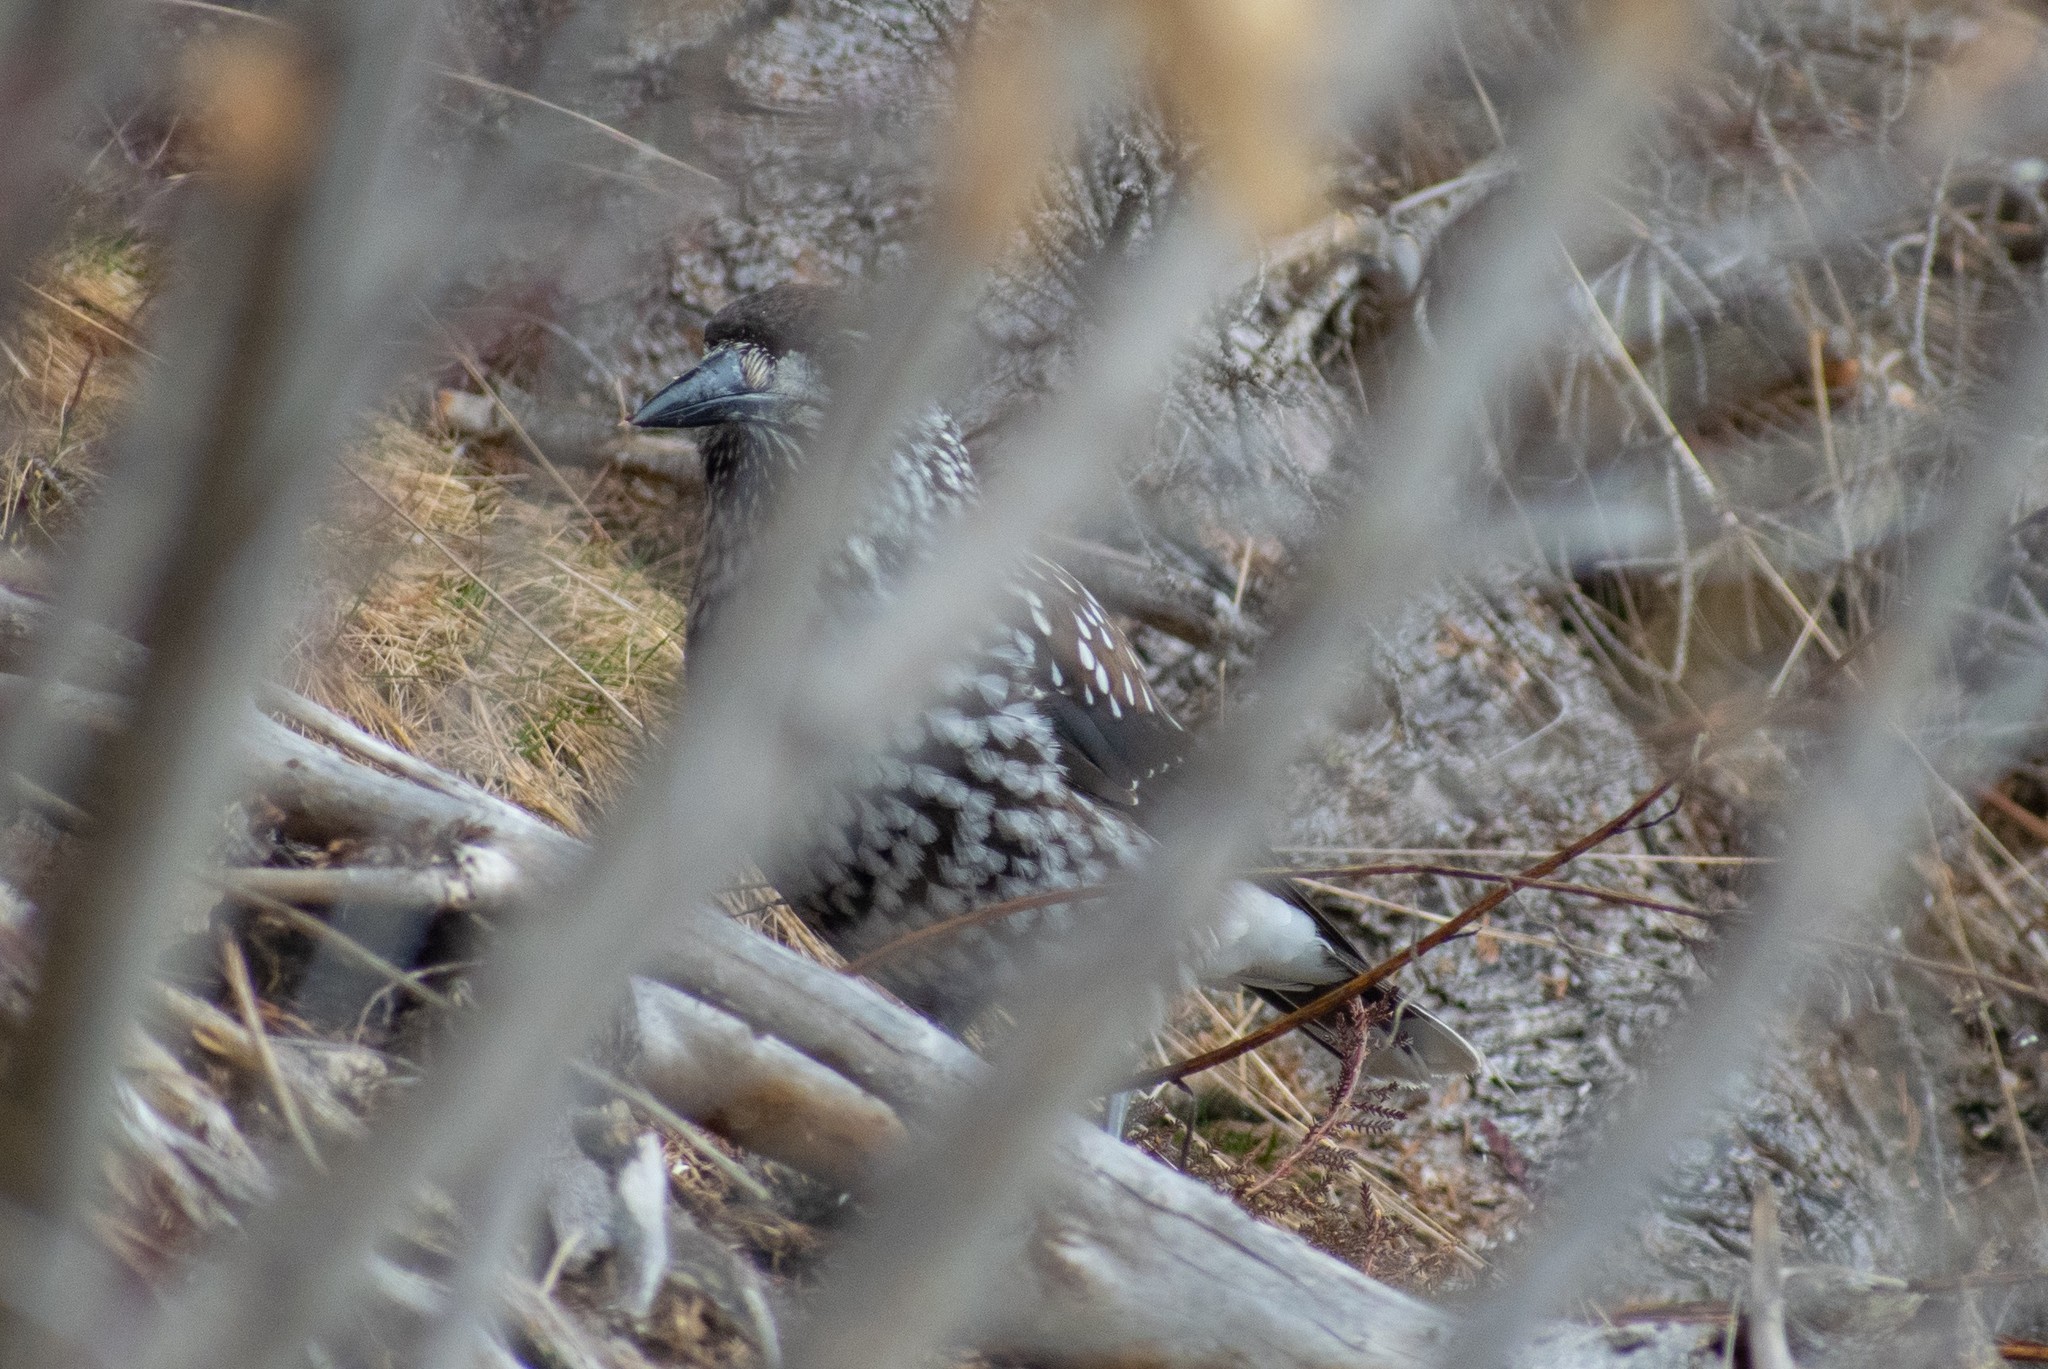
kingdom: Animalia
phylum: Chordata
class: Aves
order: Passeriformes
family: Corvidae
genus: Nucifraga
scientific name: Nucifraga caryocatactes
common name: Spotted nutcracker
